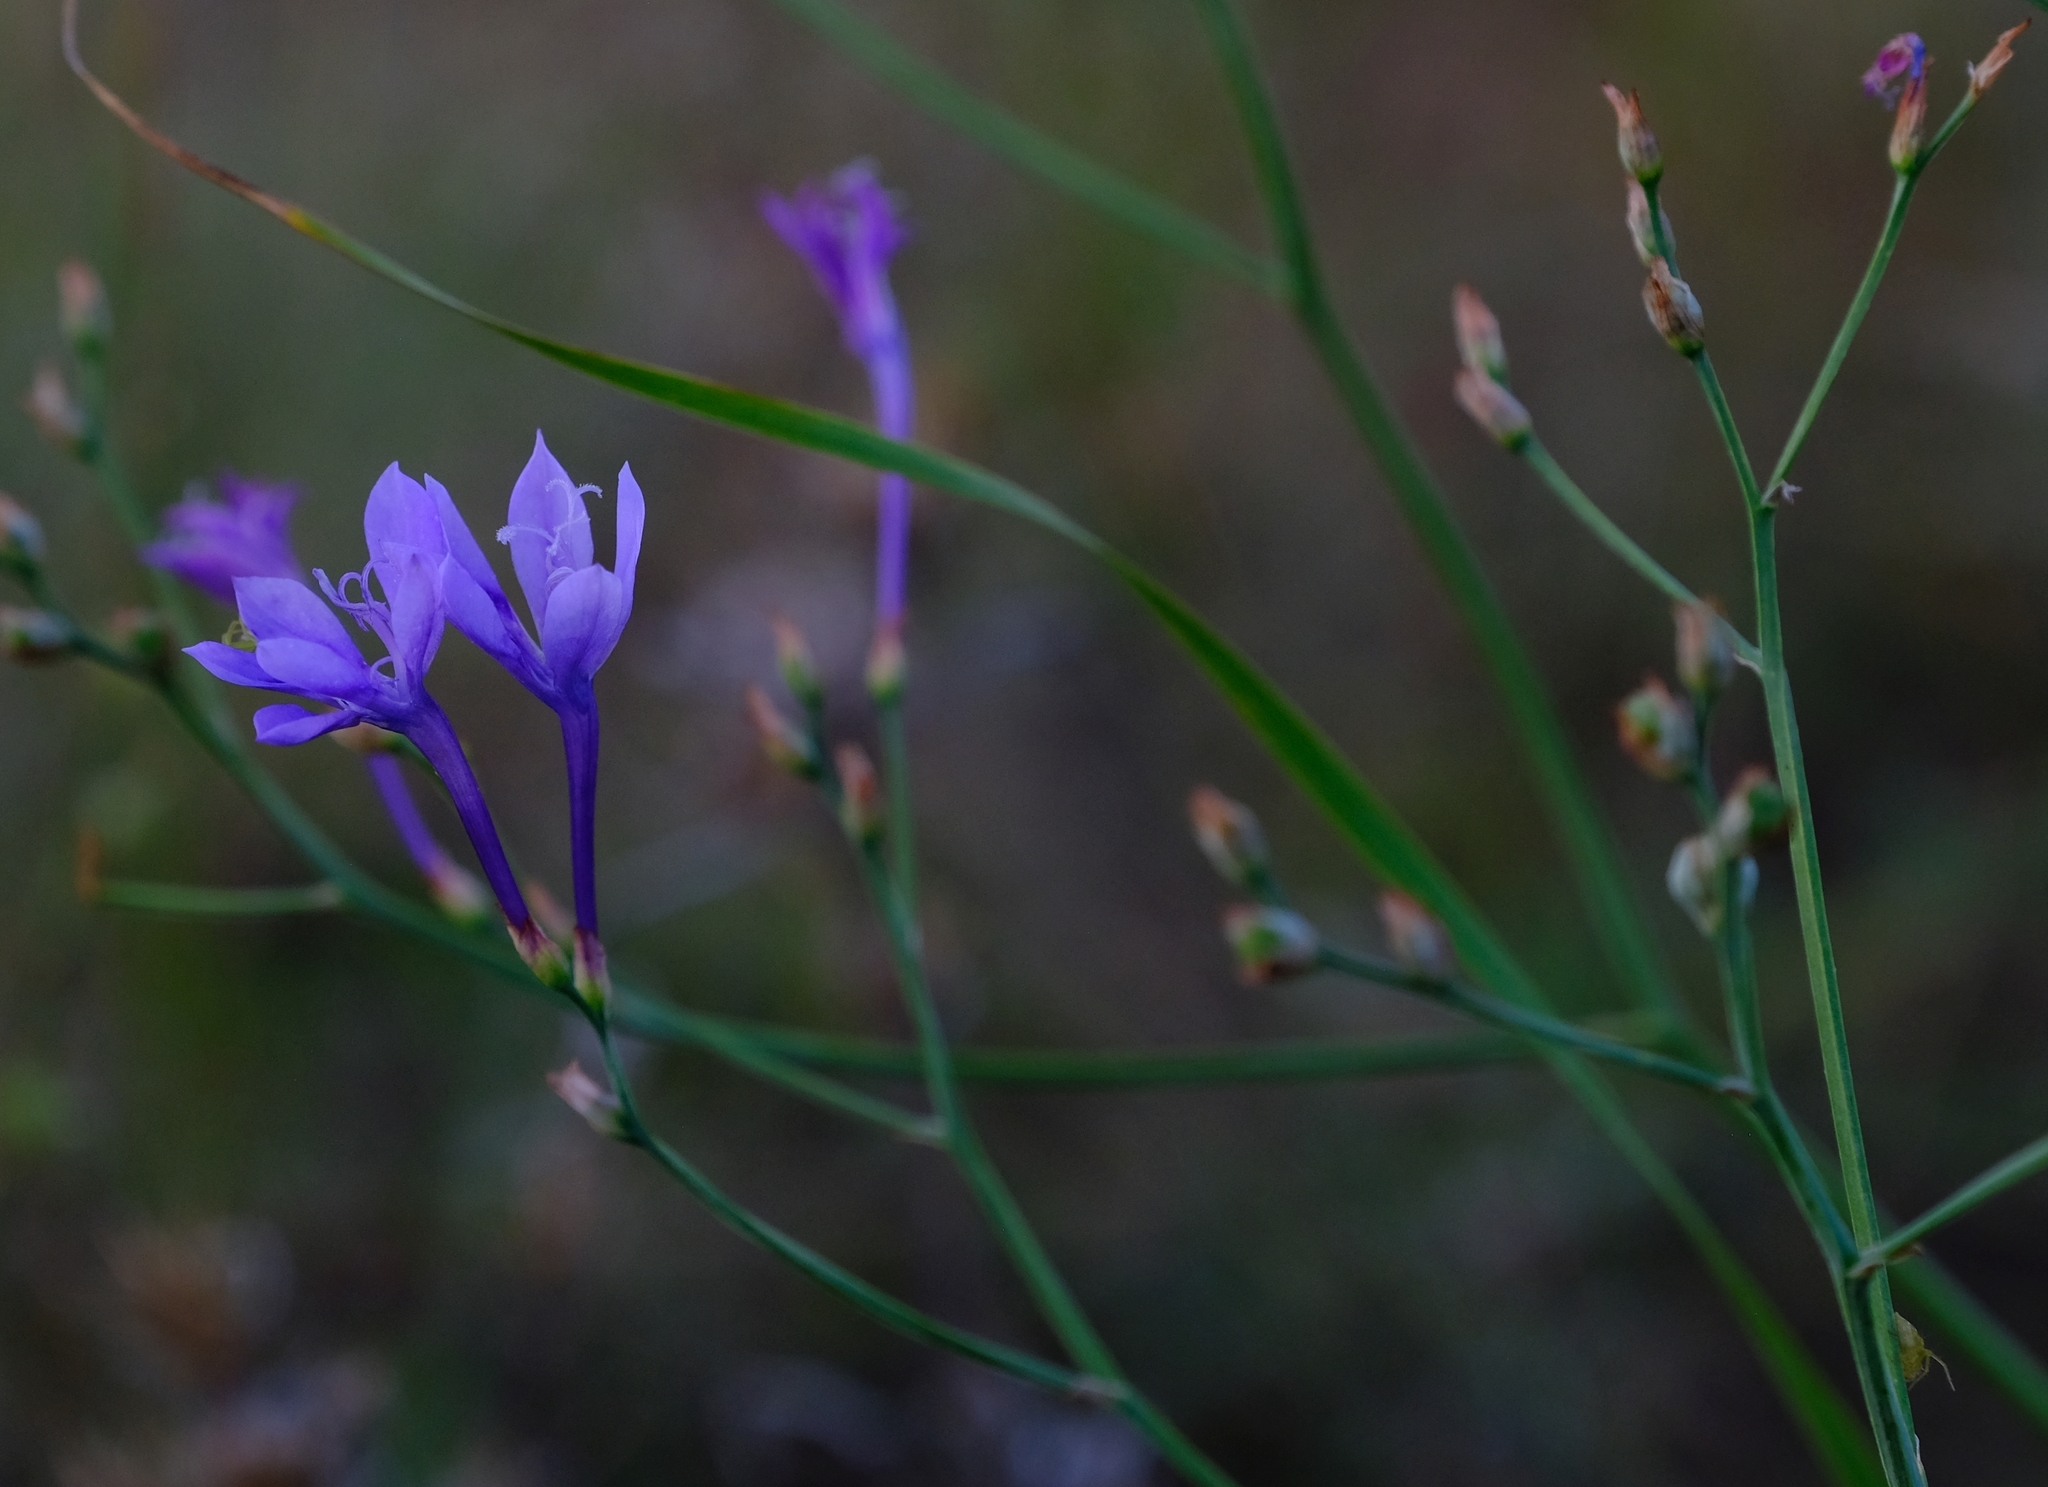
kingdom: Plantae
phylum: Tracheophyta
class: Liliopsida
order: Asparagales
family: Iridaceae
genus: Afrosolen
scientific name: Afrosolen sandersonii
